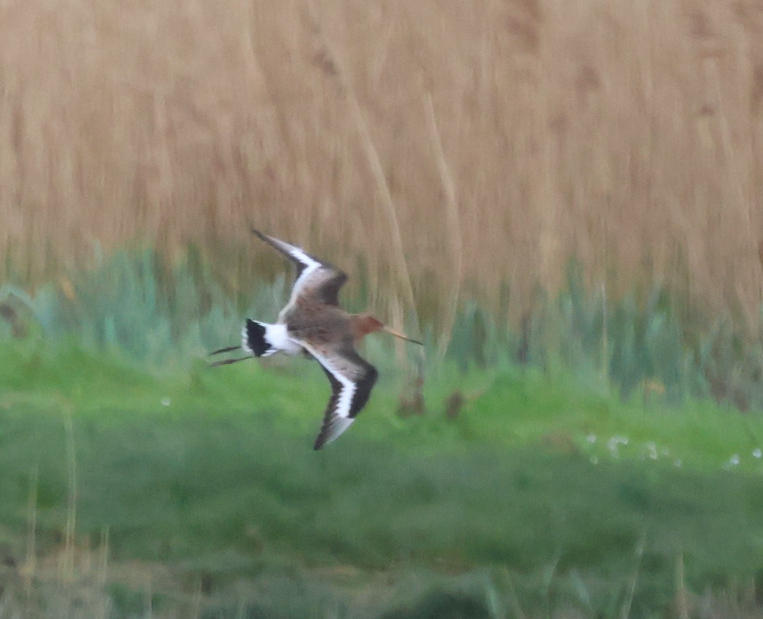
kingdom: Animalia
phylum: Chordata
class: Aves
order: Charadriiformes
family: Scolopacidae
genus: Limosa
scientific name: Limosa limosa
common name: Black-tailed godwit
